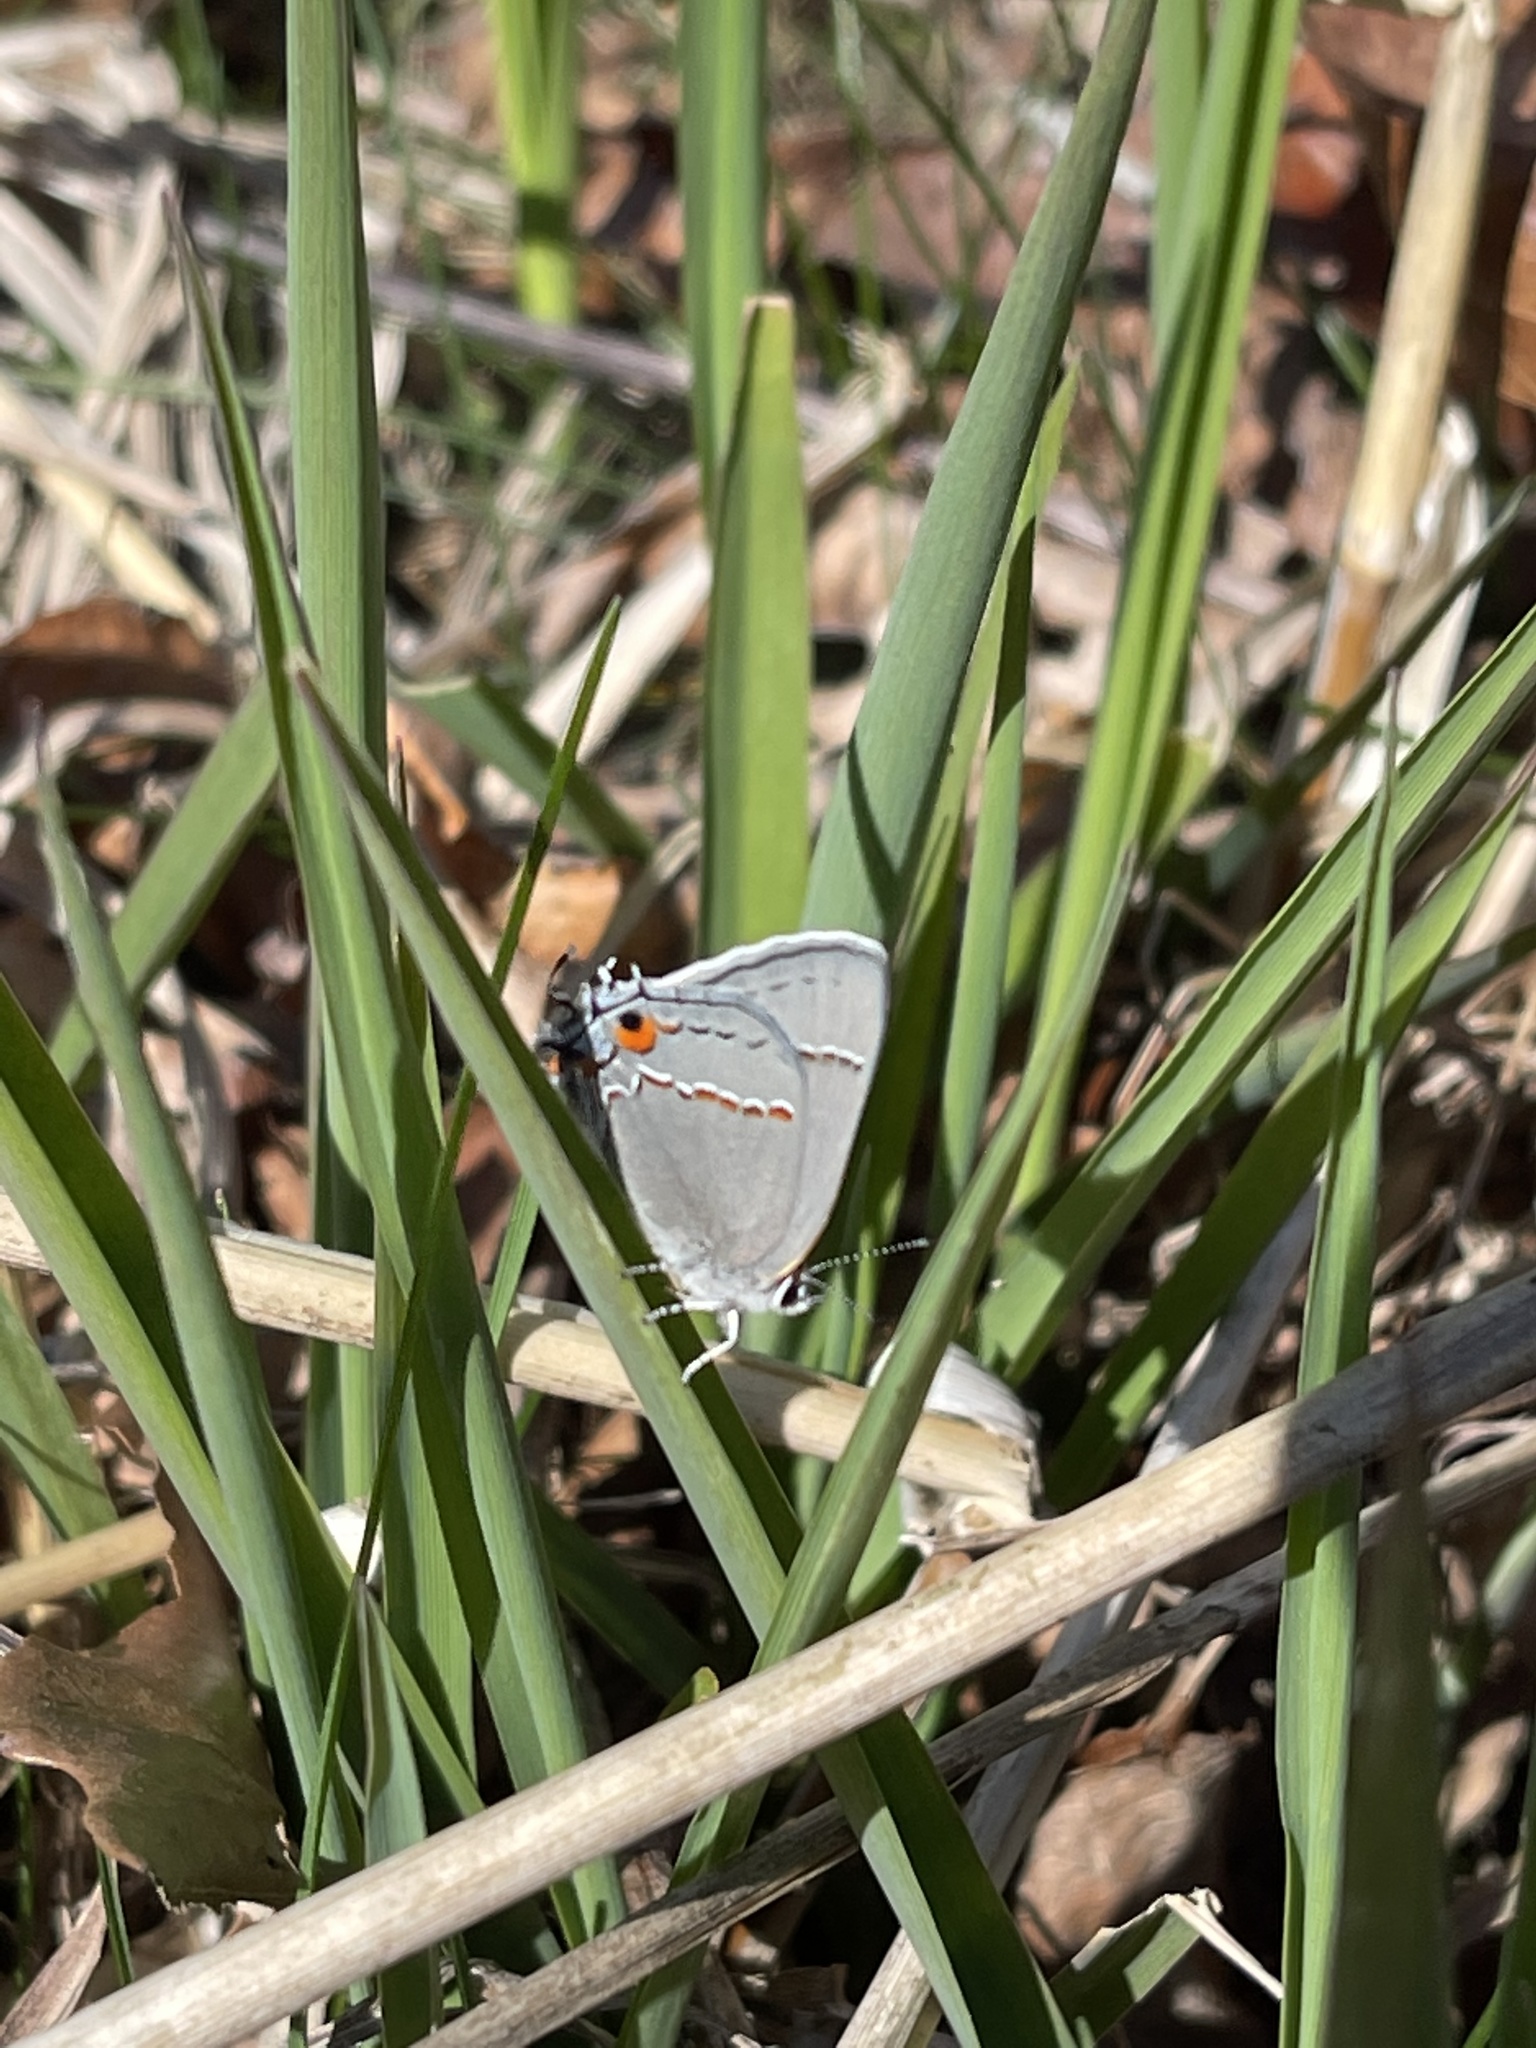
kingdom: Animalia
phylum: Arthropoda
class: Insecta
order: Lepidoptera
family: Lycaenidae
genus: Strymon
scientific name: Strymon melinus
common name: Gray hairstreak
